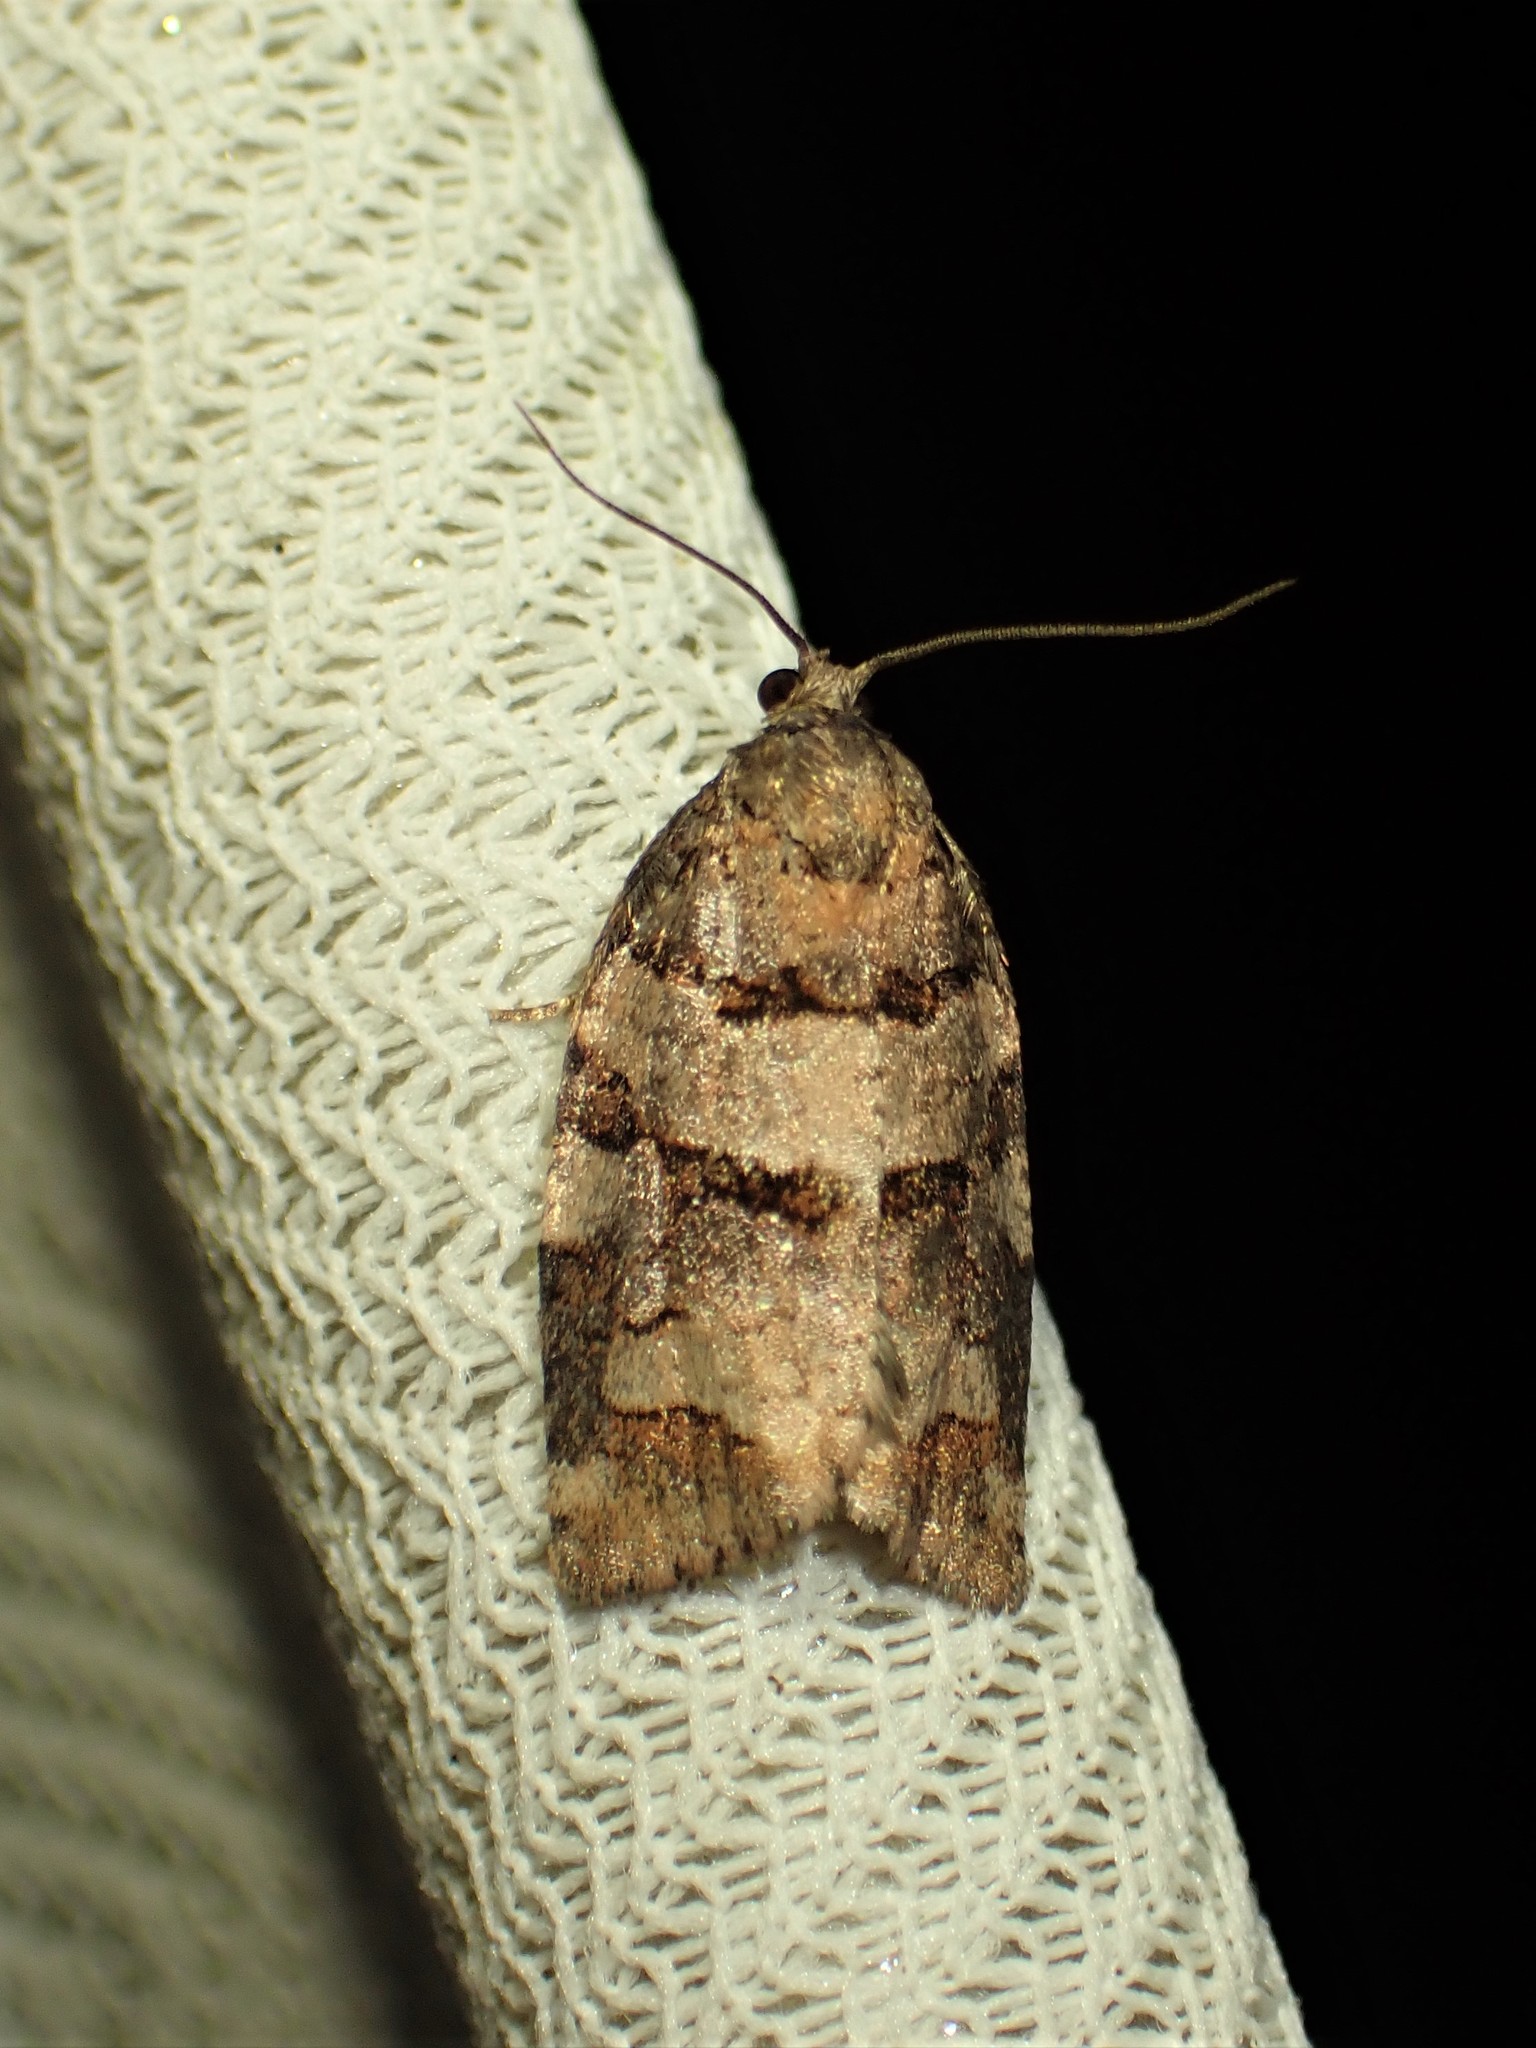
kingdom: Animalia
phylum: Arthropoda
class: Insecta
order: Lepidoptera
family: Tortricidae
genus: Archips
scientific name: Archips alberta
